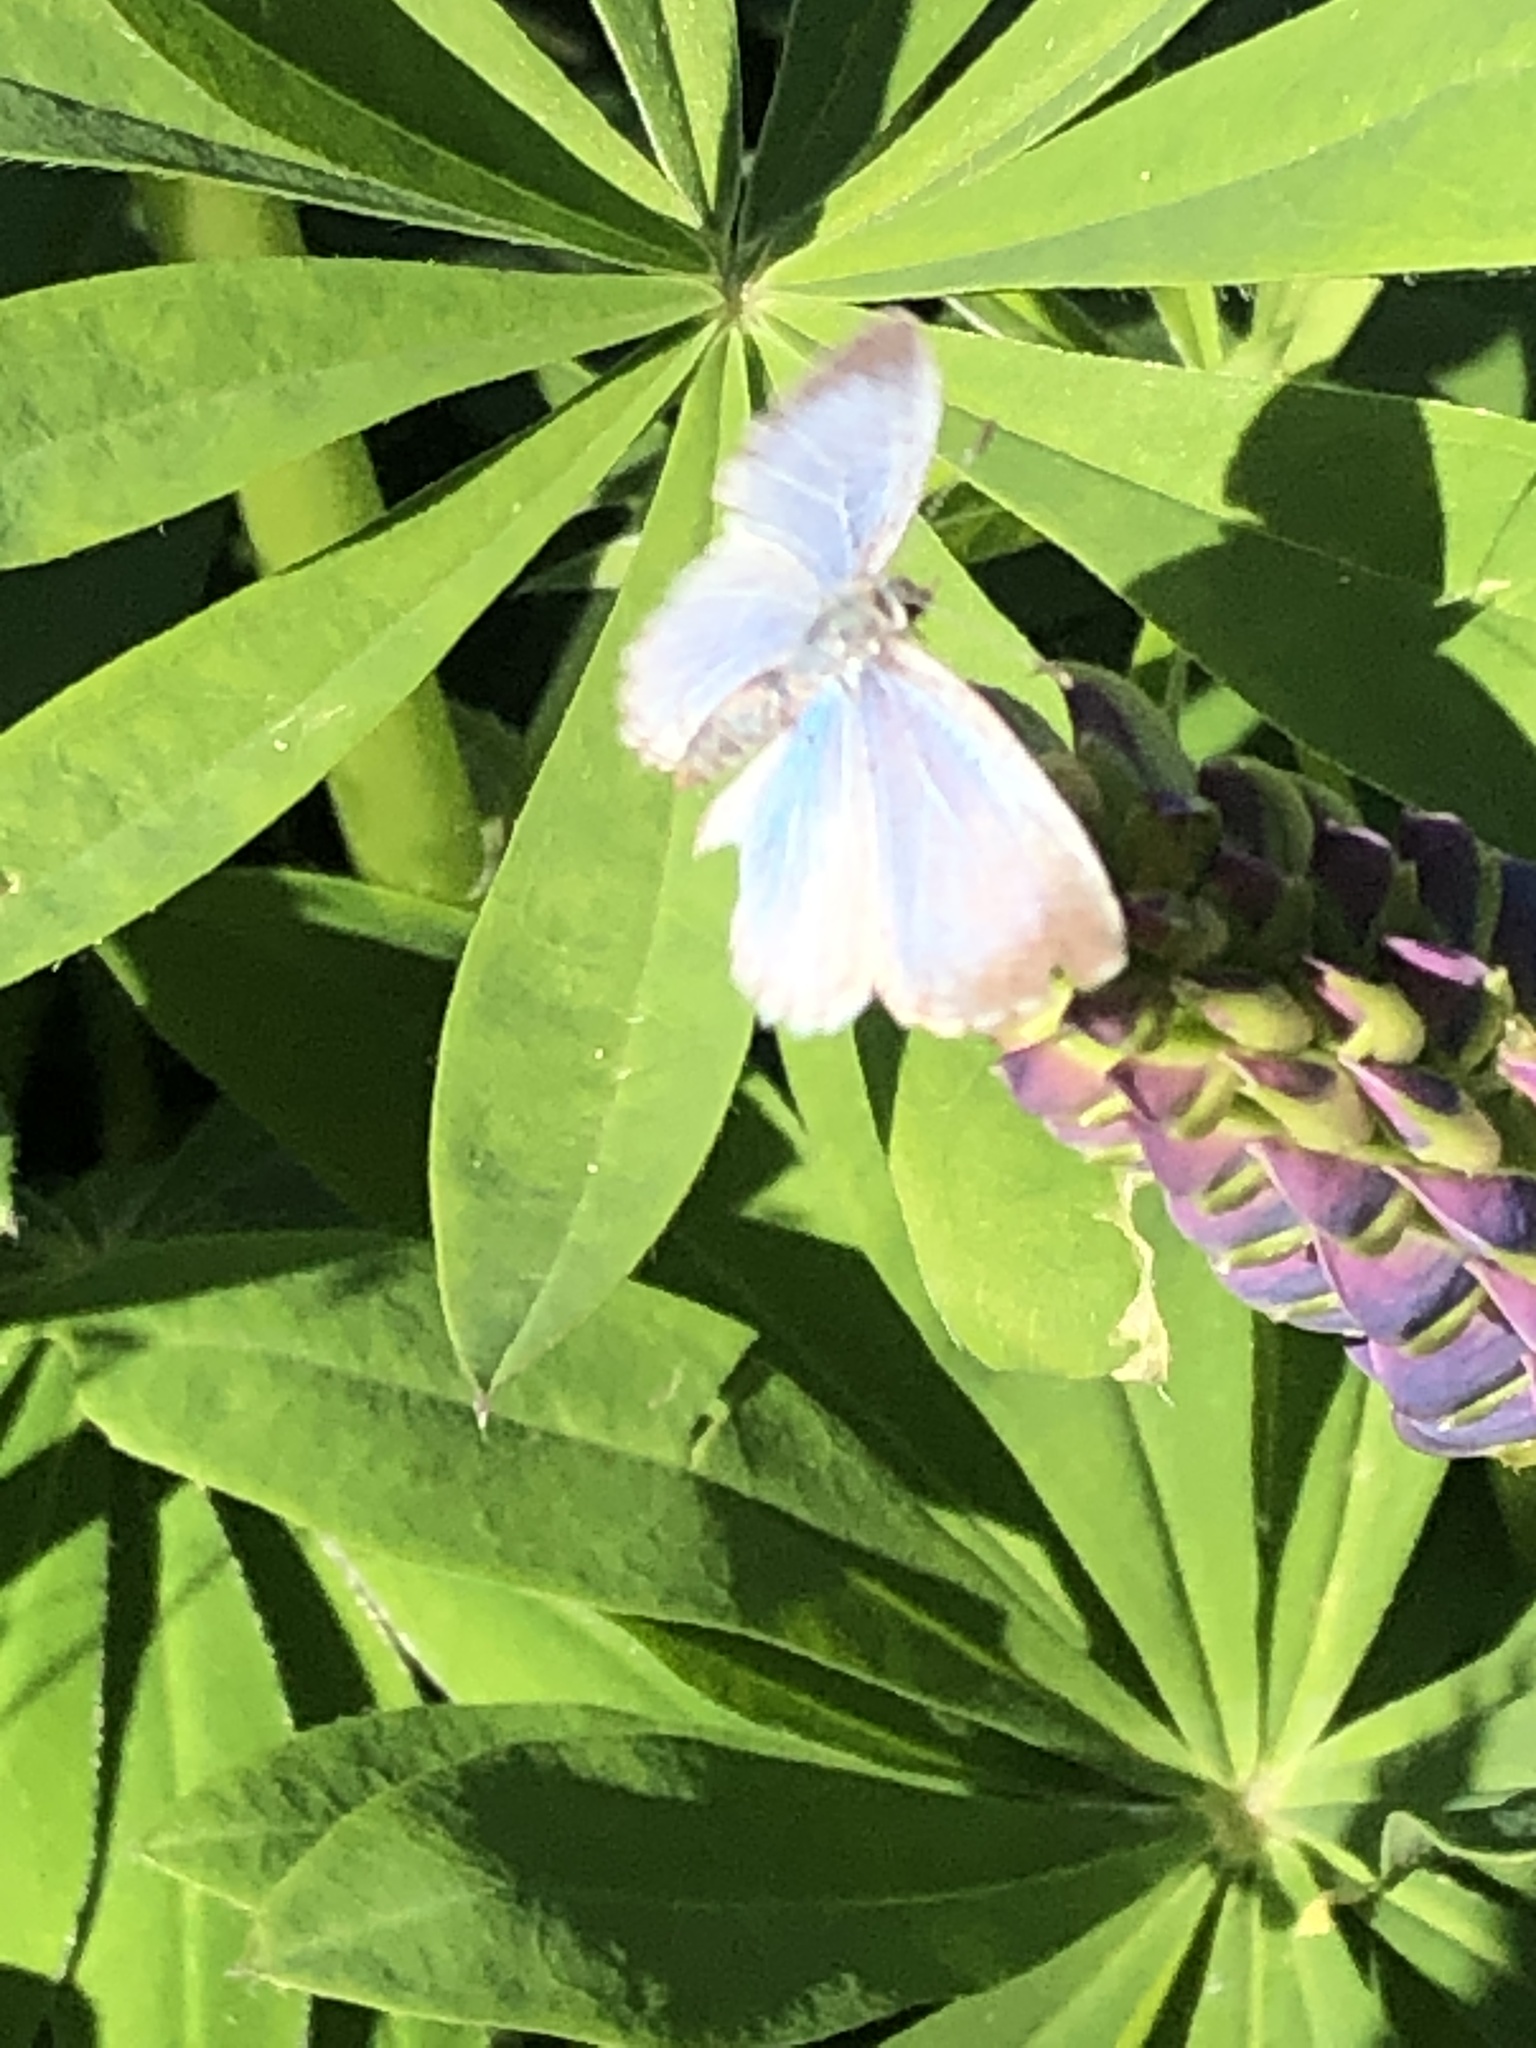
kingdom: Animalia
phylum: Arthropoda
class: Insecta
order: Lepidoptera
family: Lycaenidae
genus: Celastrina
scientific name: Celastrina lucia
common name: Lucia azure
